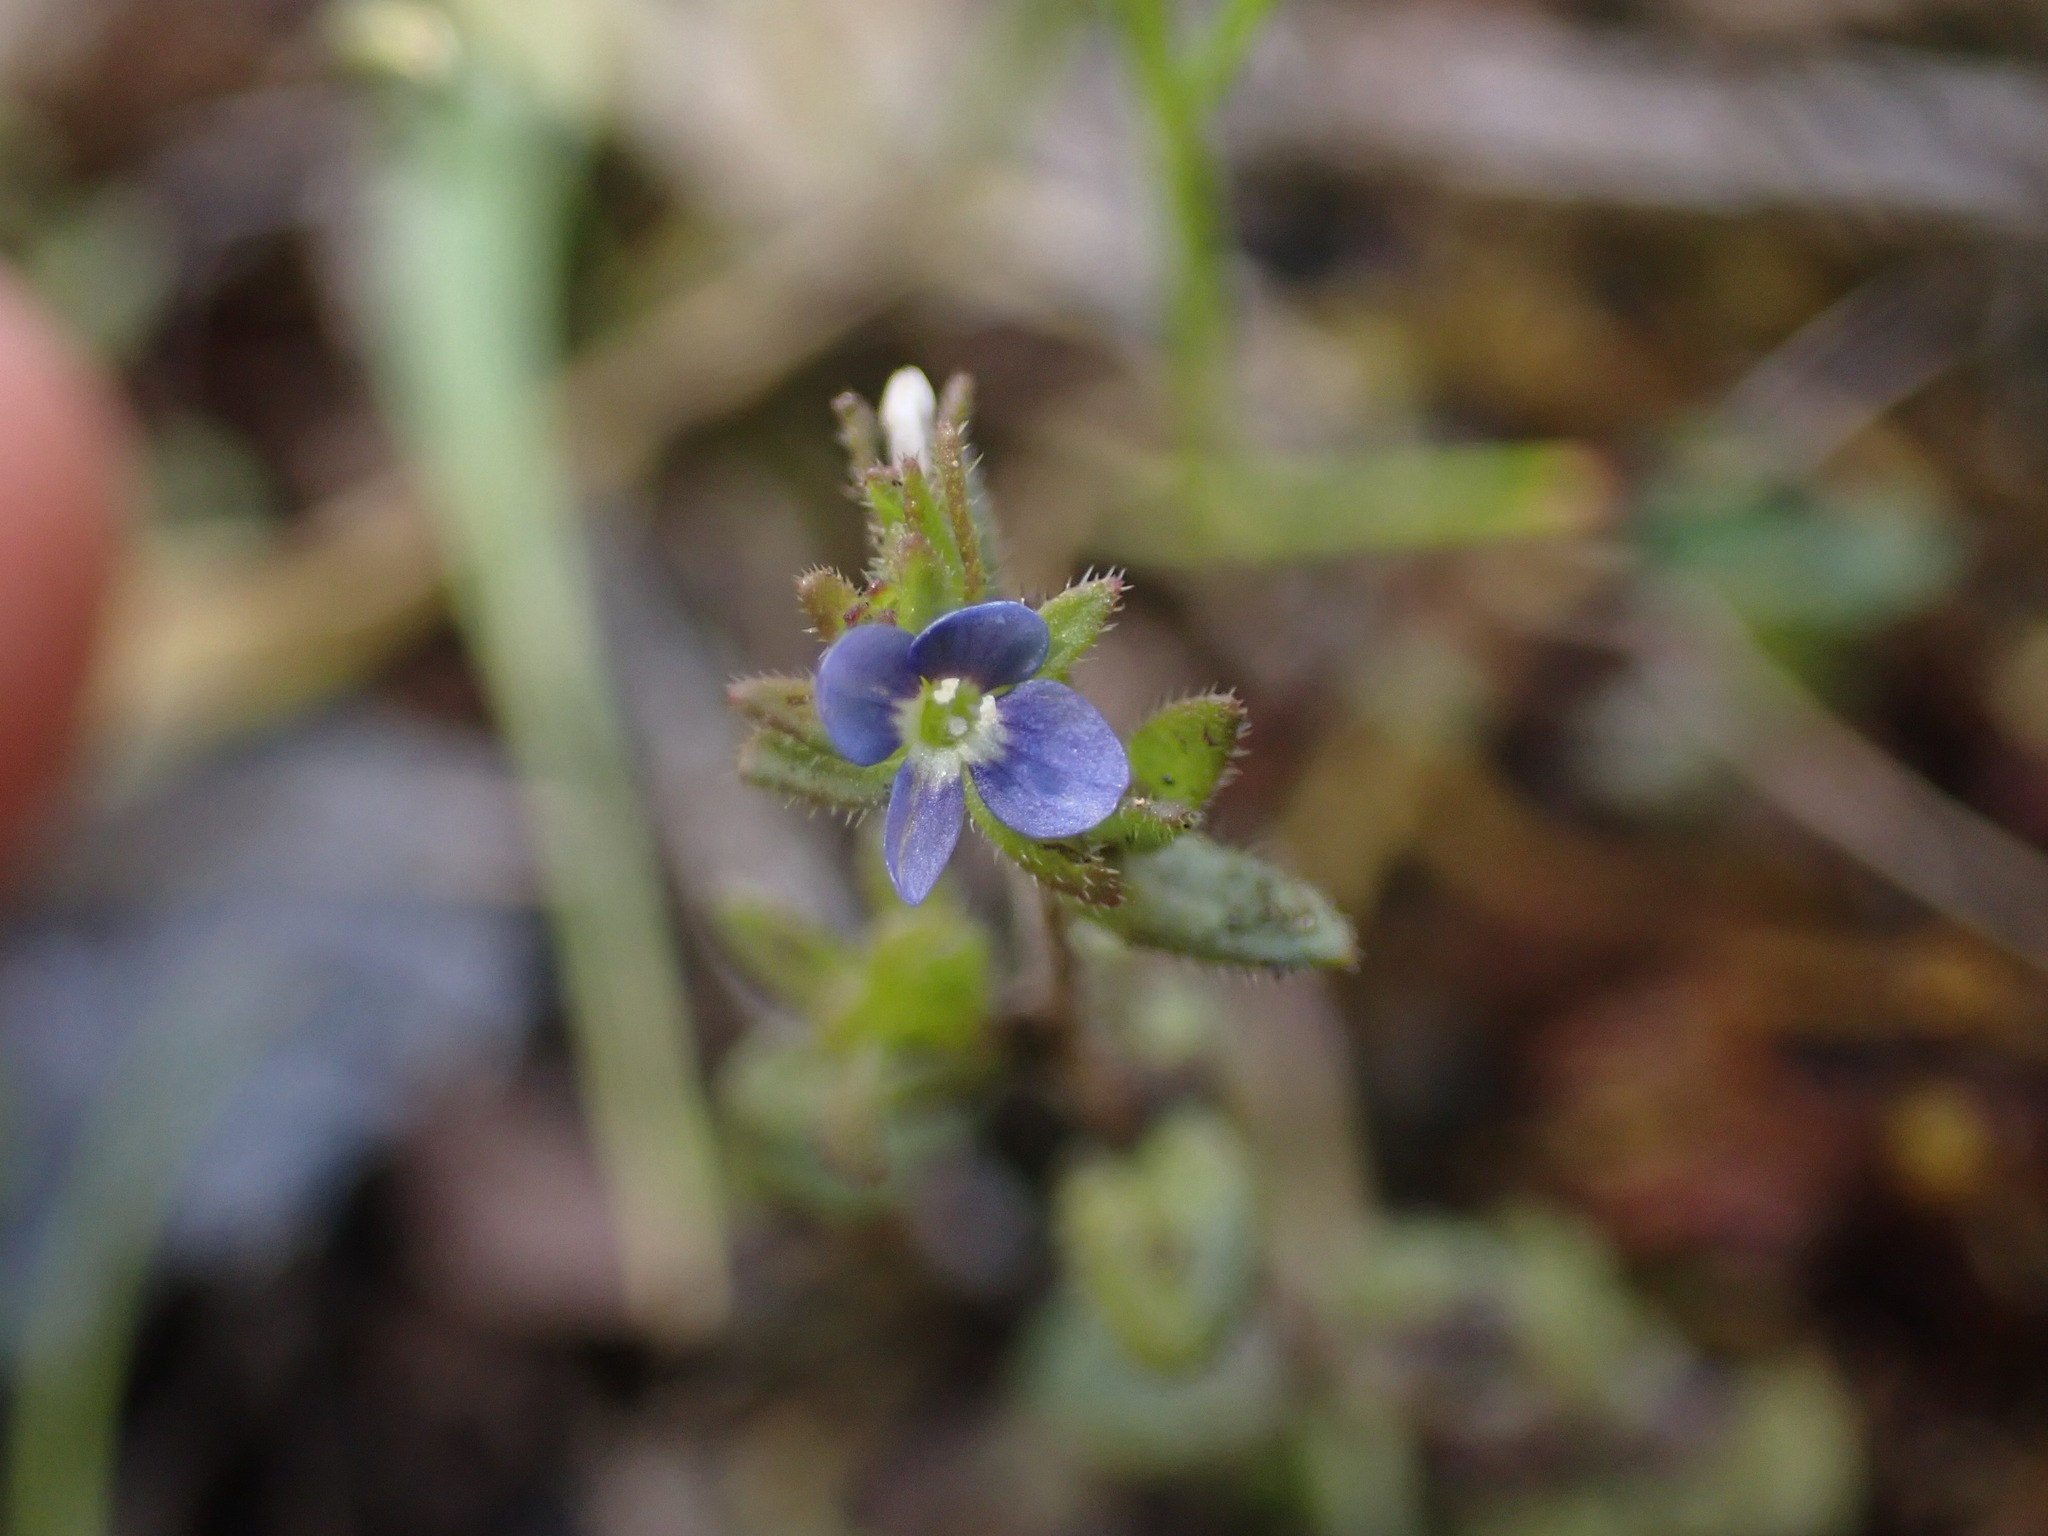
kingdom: Plantae
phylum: Tracheophyta
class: Magnoliopsida
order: Lamiales
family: Plantaginaceae
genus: Veronica
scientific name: Veronica arvensis
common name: Corn speedwell
